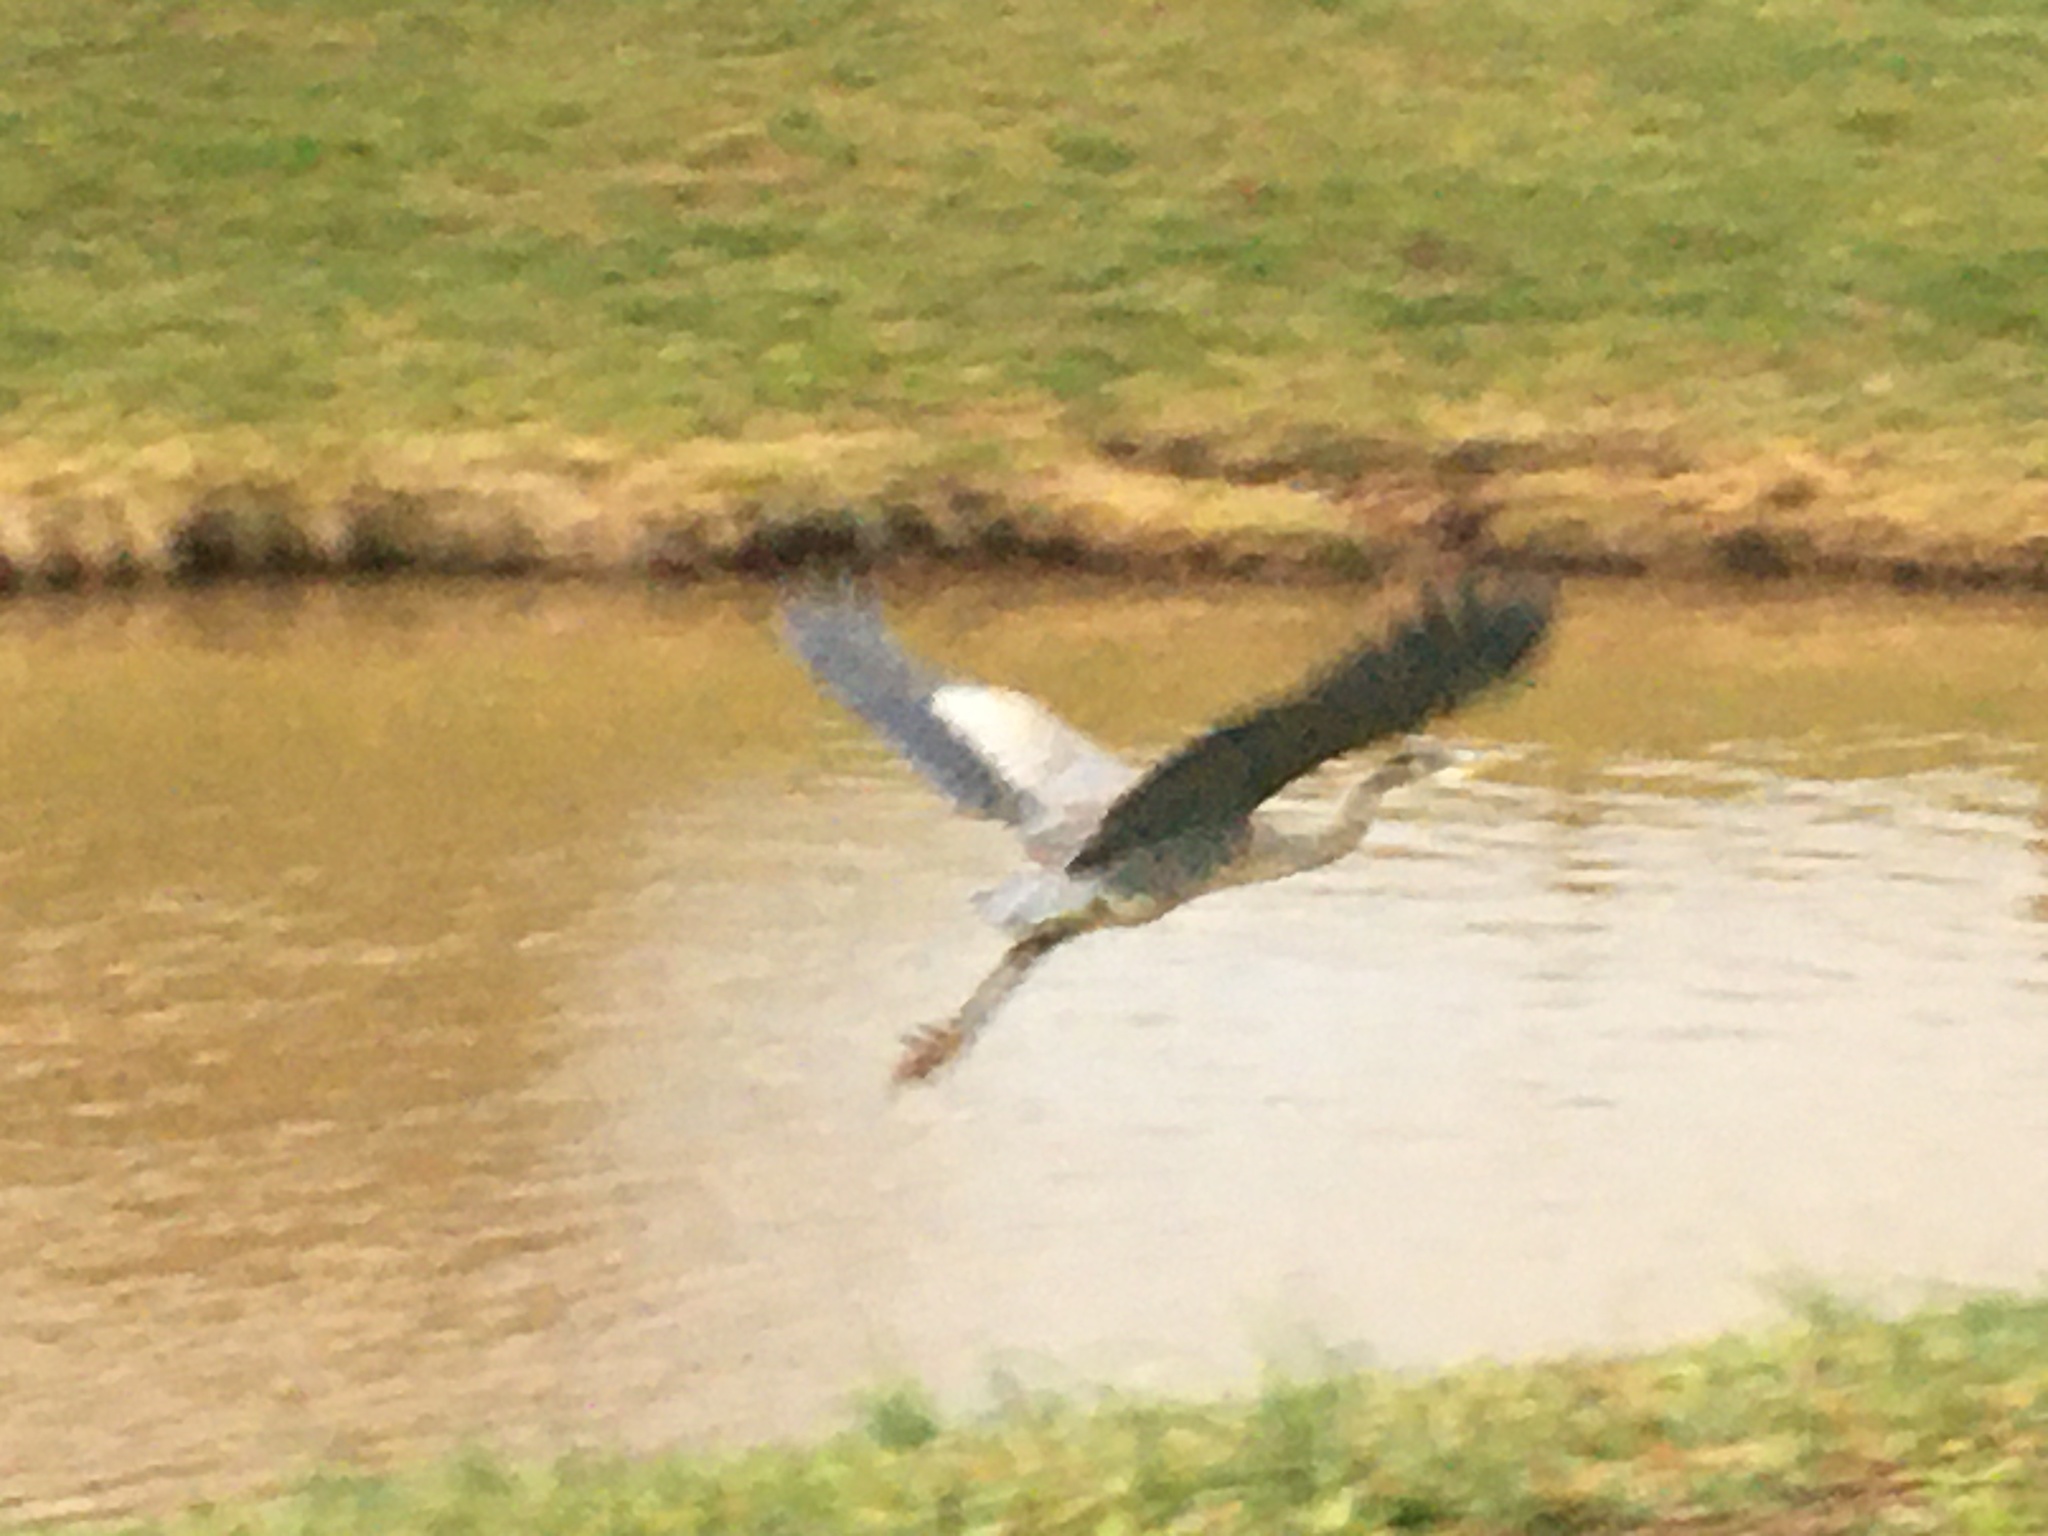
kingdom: Animalia
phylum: Chordata
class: Aves
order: Pelecaniformes
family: Ardeidae
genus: Ardea
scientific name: Ardea herodias
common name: Great blue heron
